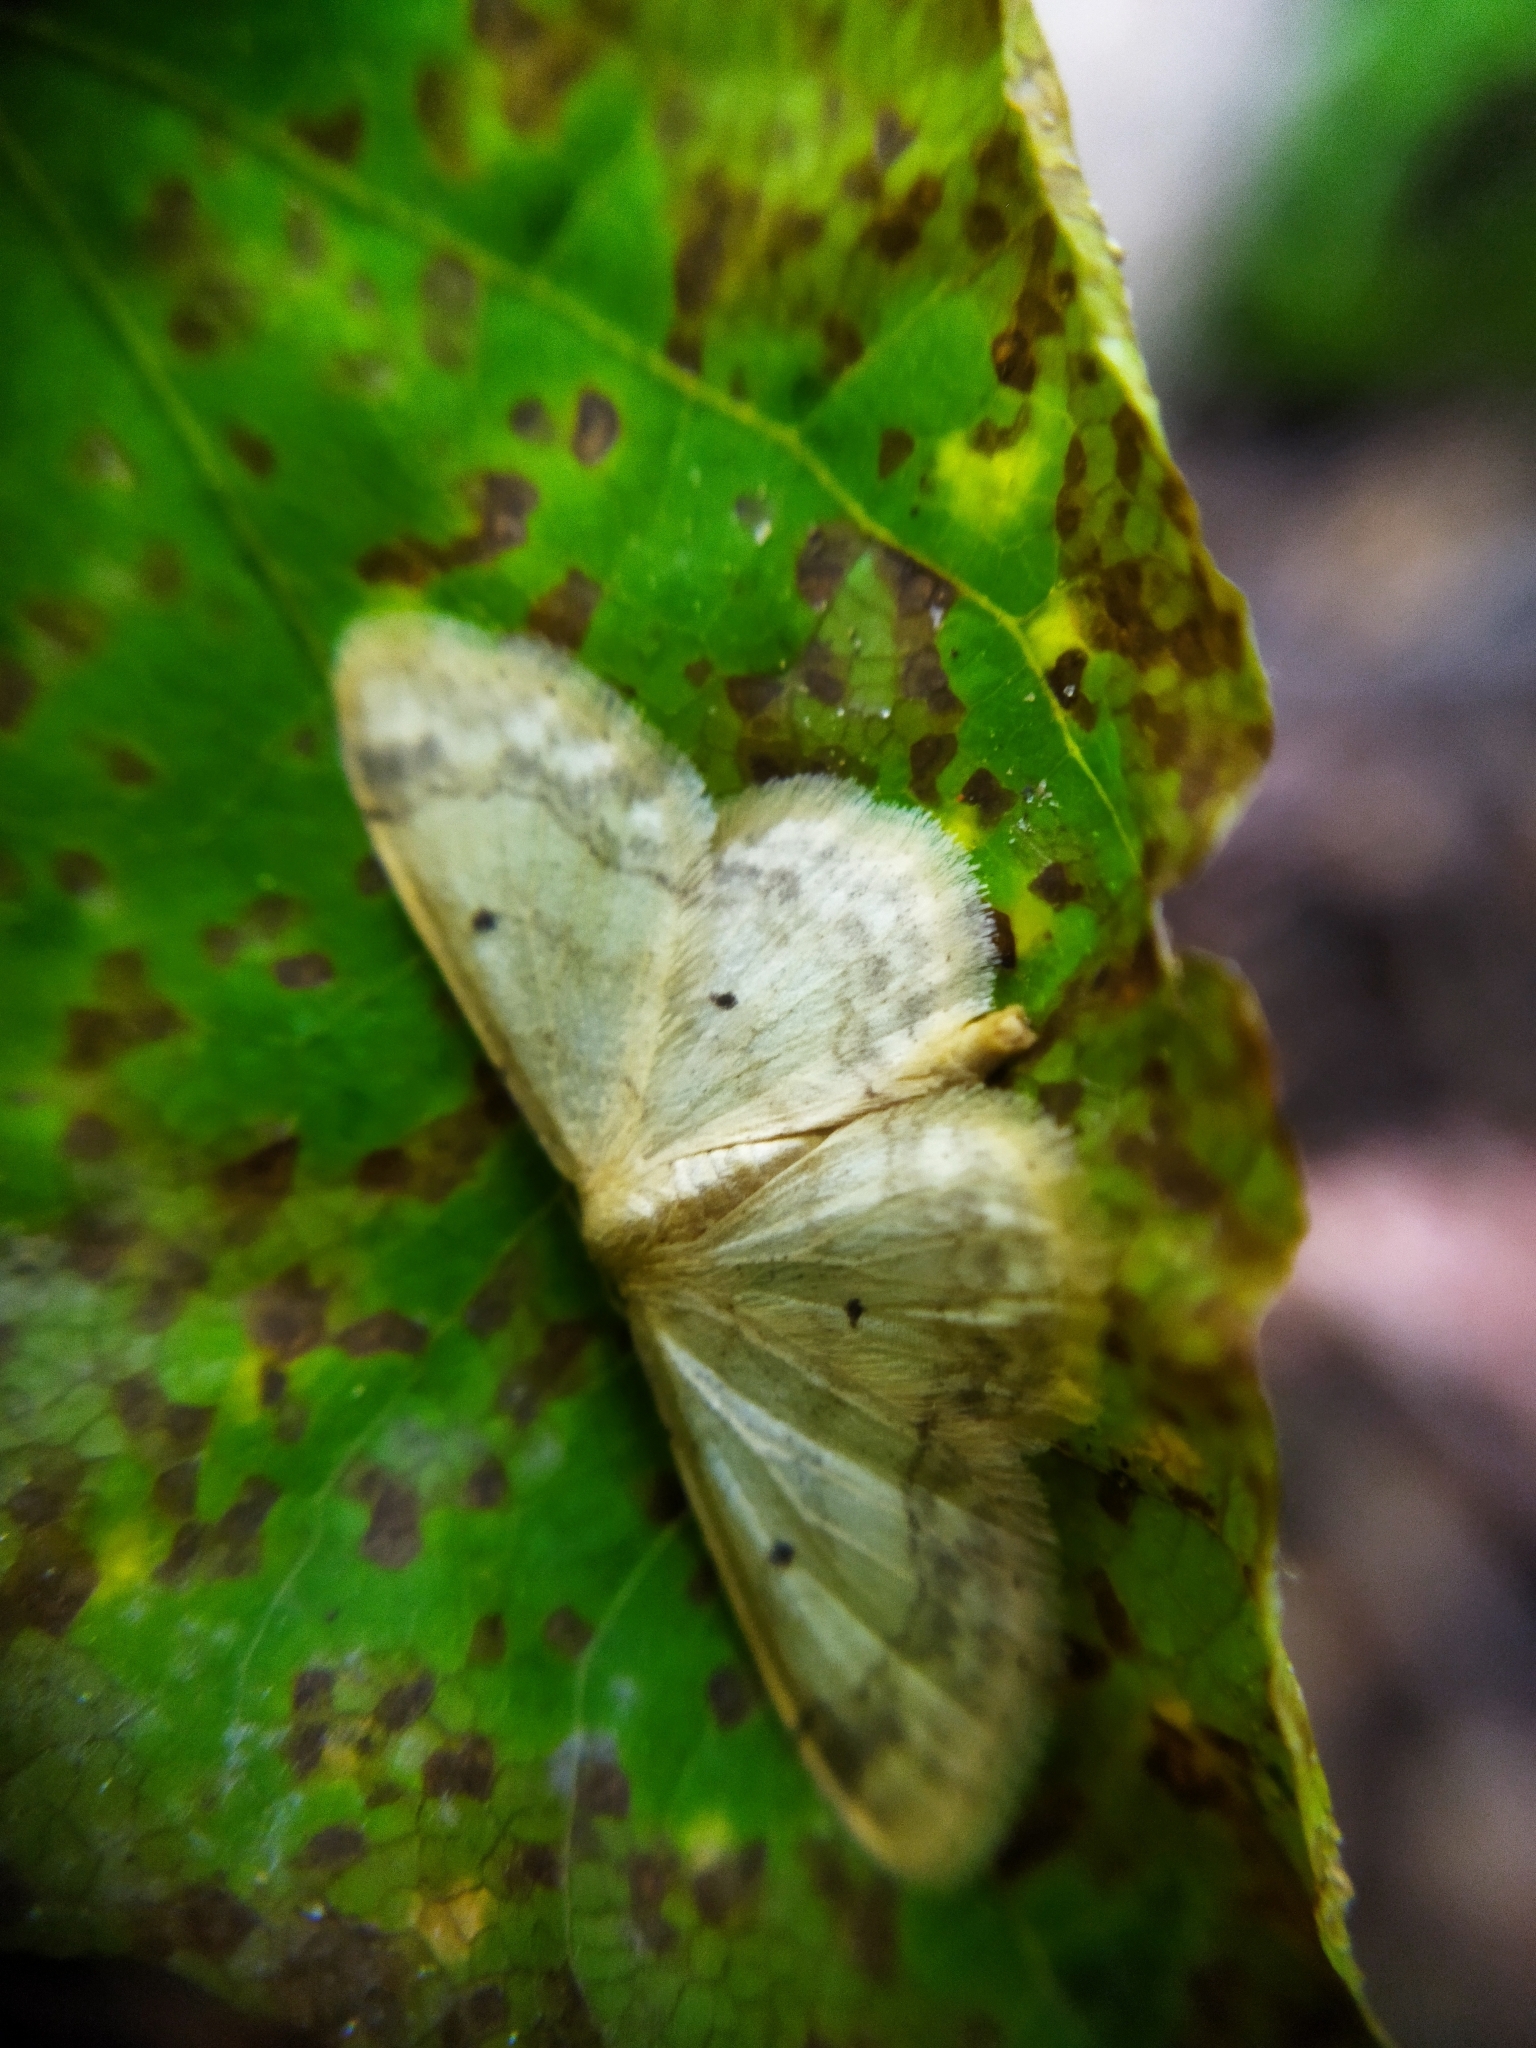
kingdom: Animalia
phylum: Arthropoda
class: Insecta
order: Lepidoptera
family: Geometridae
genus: Idaea
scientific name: Idaea biselata
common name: Small fan-footed wave
